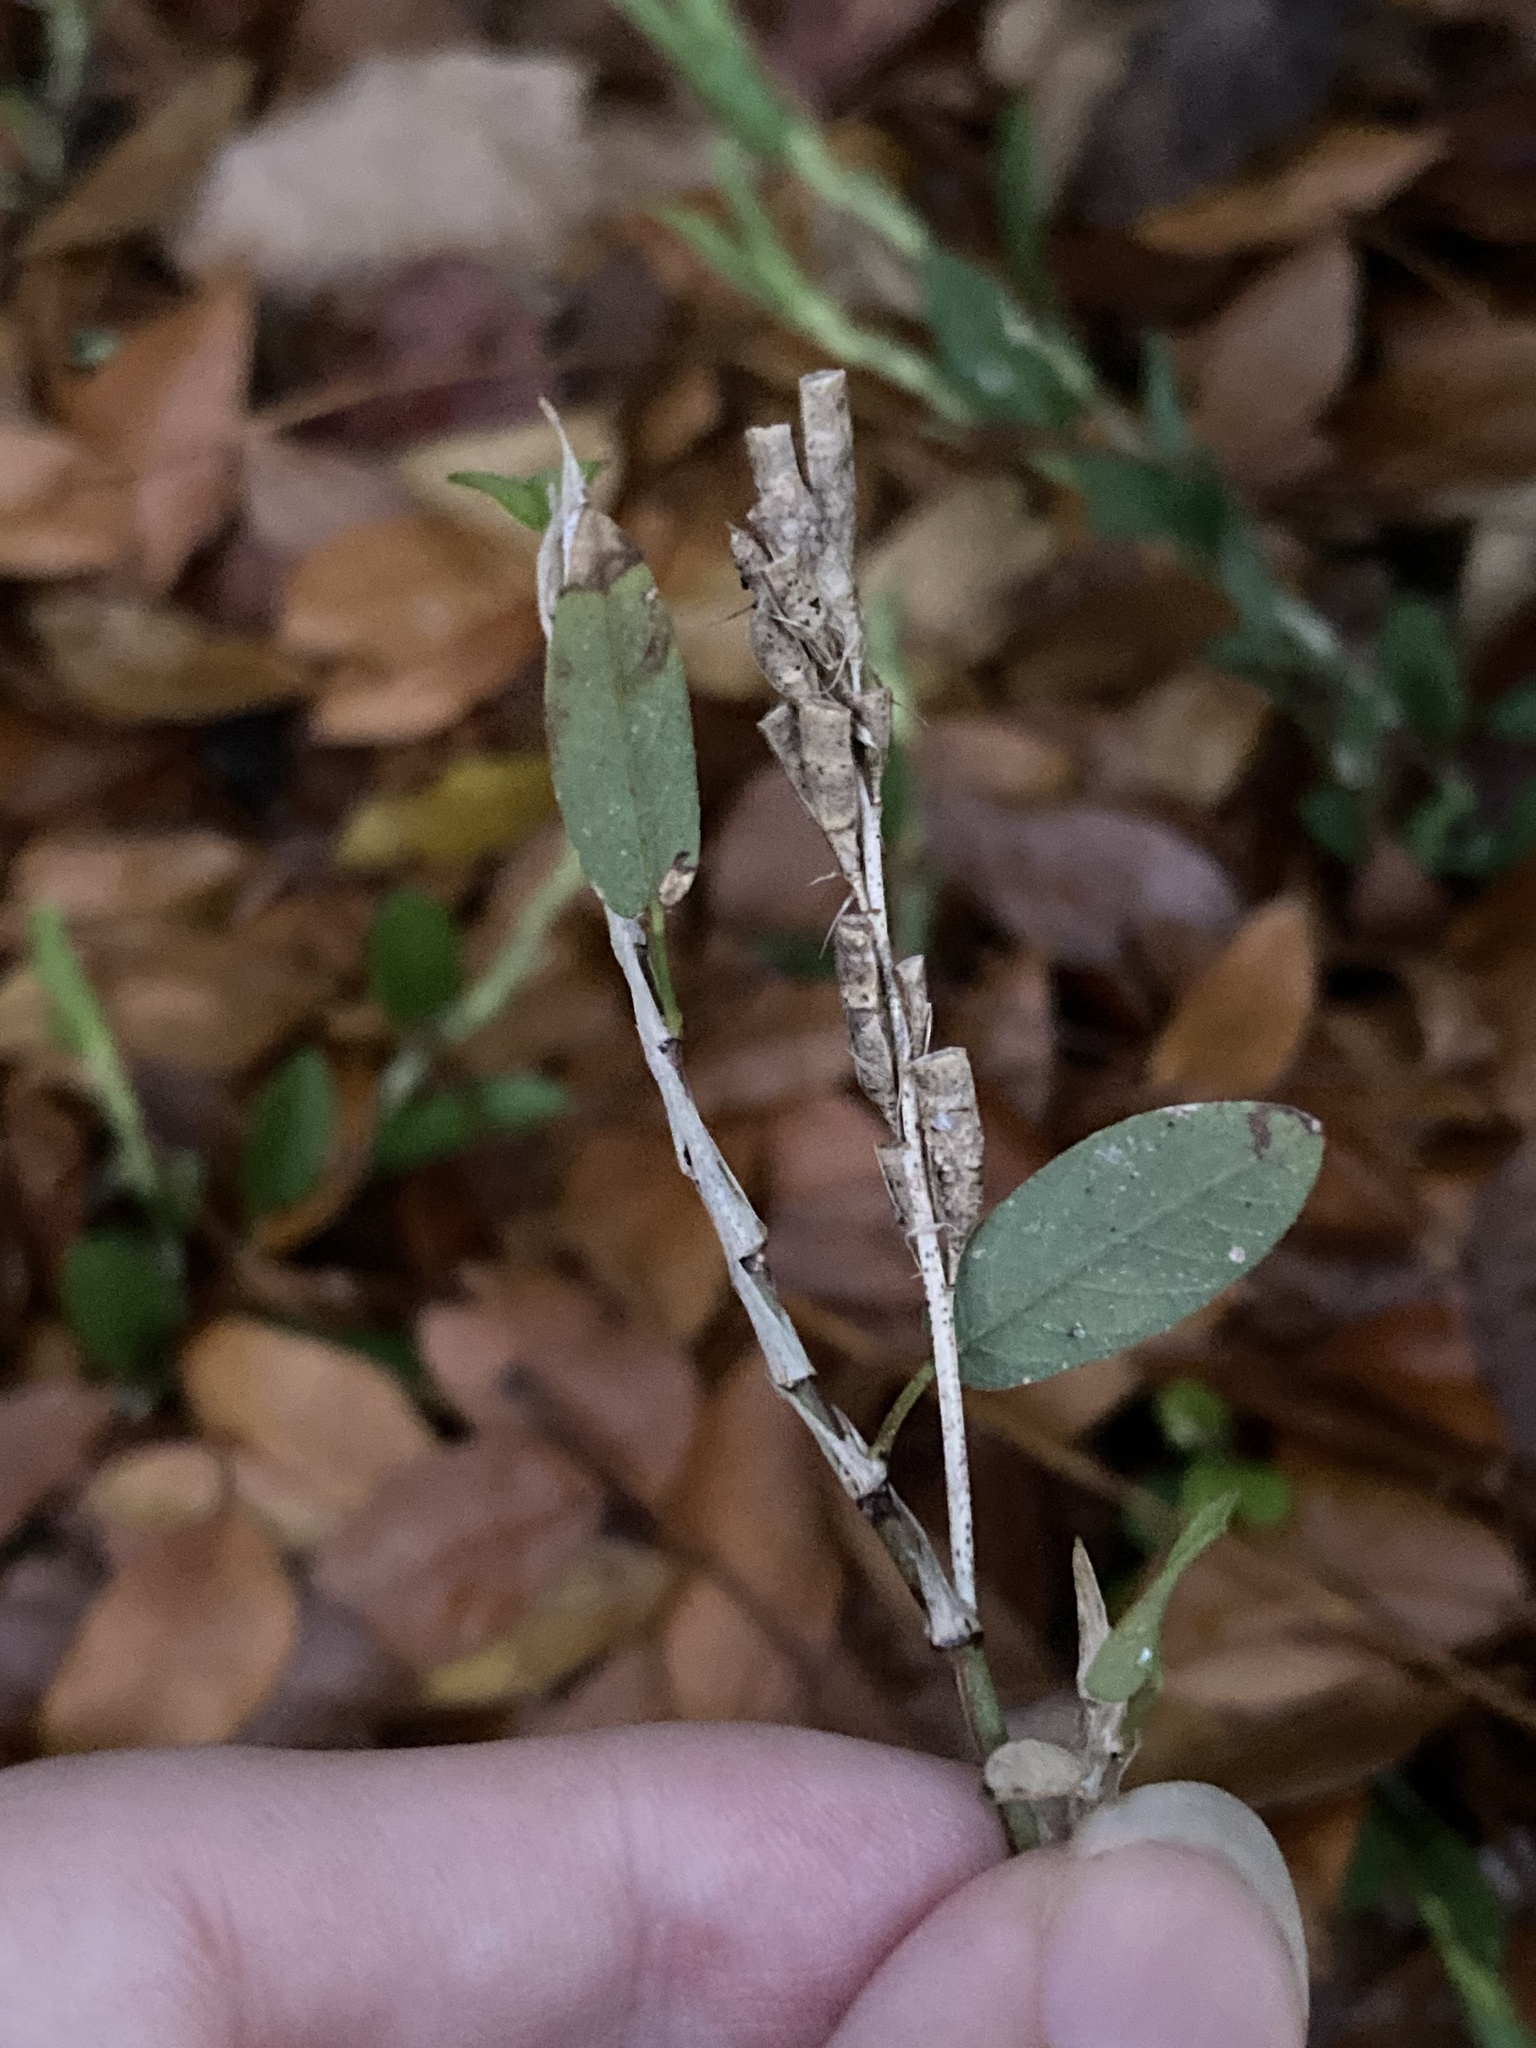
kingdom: Plantae
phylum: Tracheophyta
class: Magnoliopsida
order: Fabales
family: Fabaceae
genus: Alysicarpus
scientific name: Alysicarpus vaginalis
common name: White moneywort
